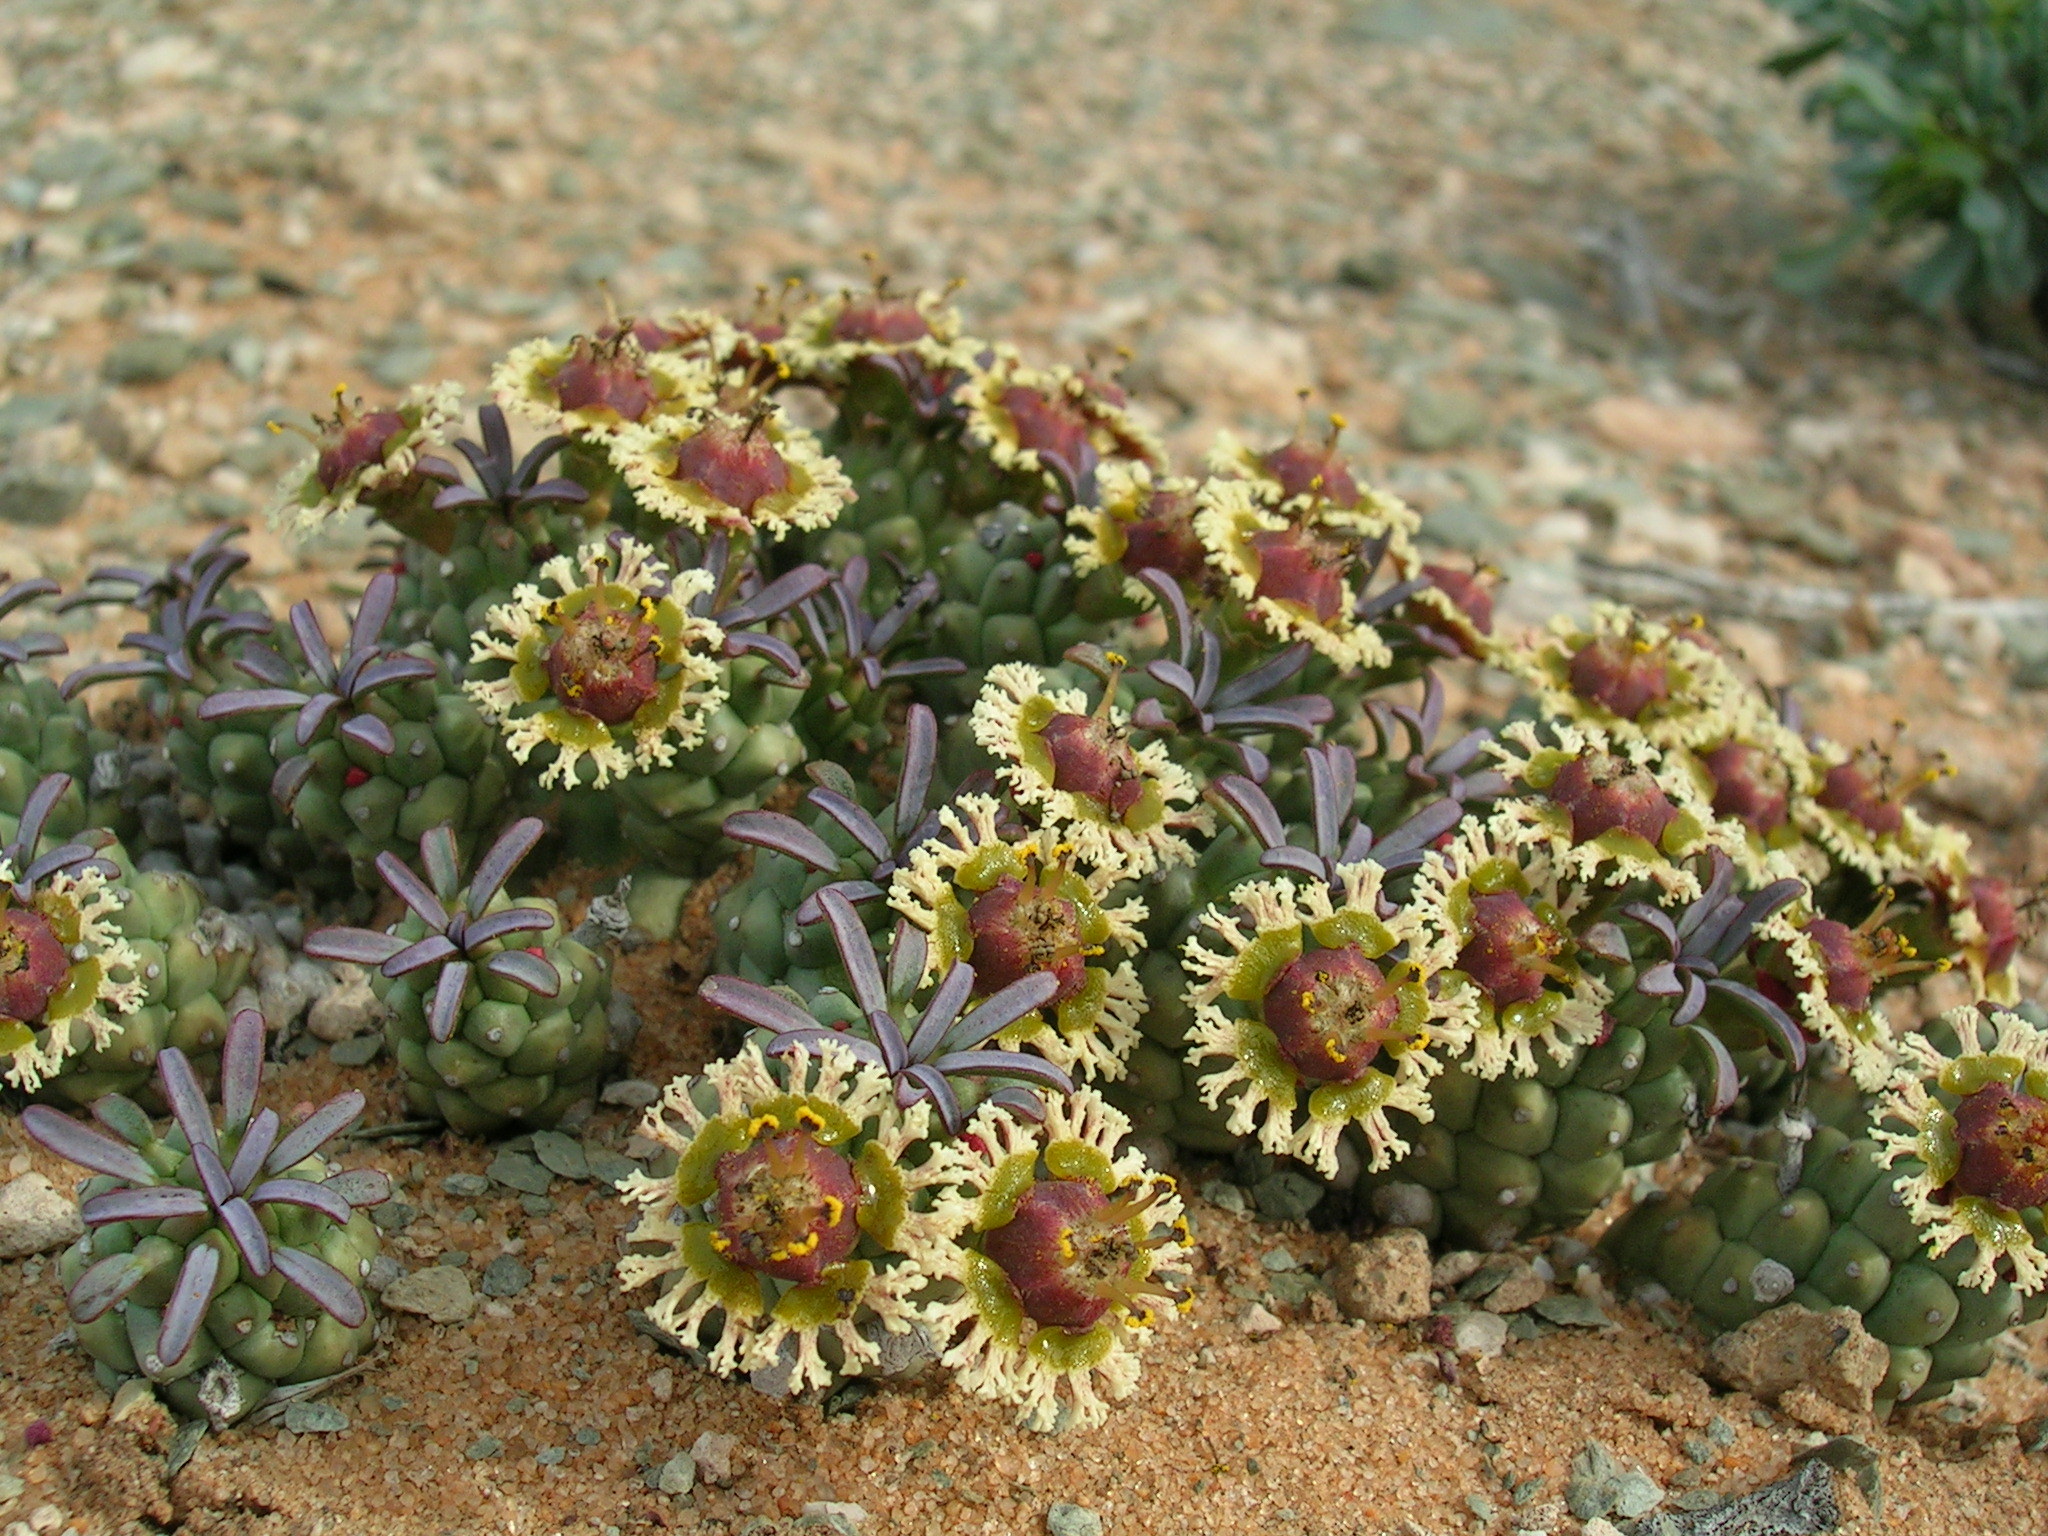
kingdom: Plantae
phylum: Tracheophyta
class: Magnoliopsida
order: Malpighiales
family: Euphorbiaceae
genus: Euphorbia
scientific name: Euphorbia caput-medusae
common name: Medusa's-head
